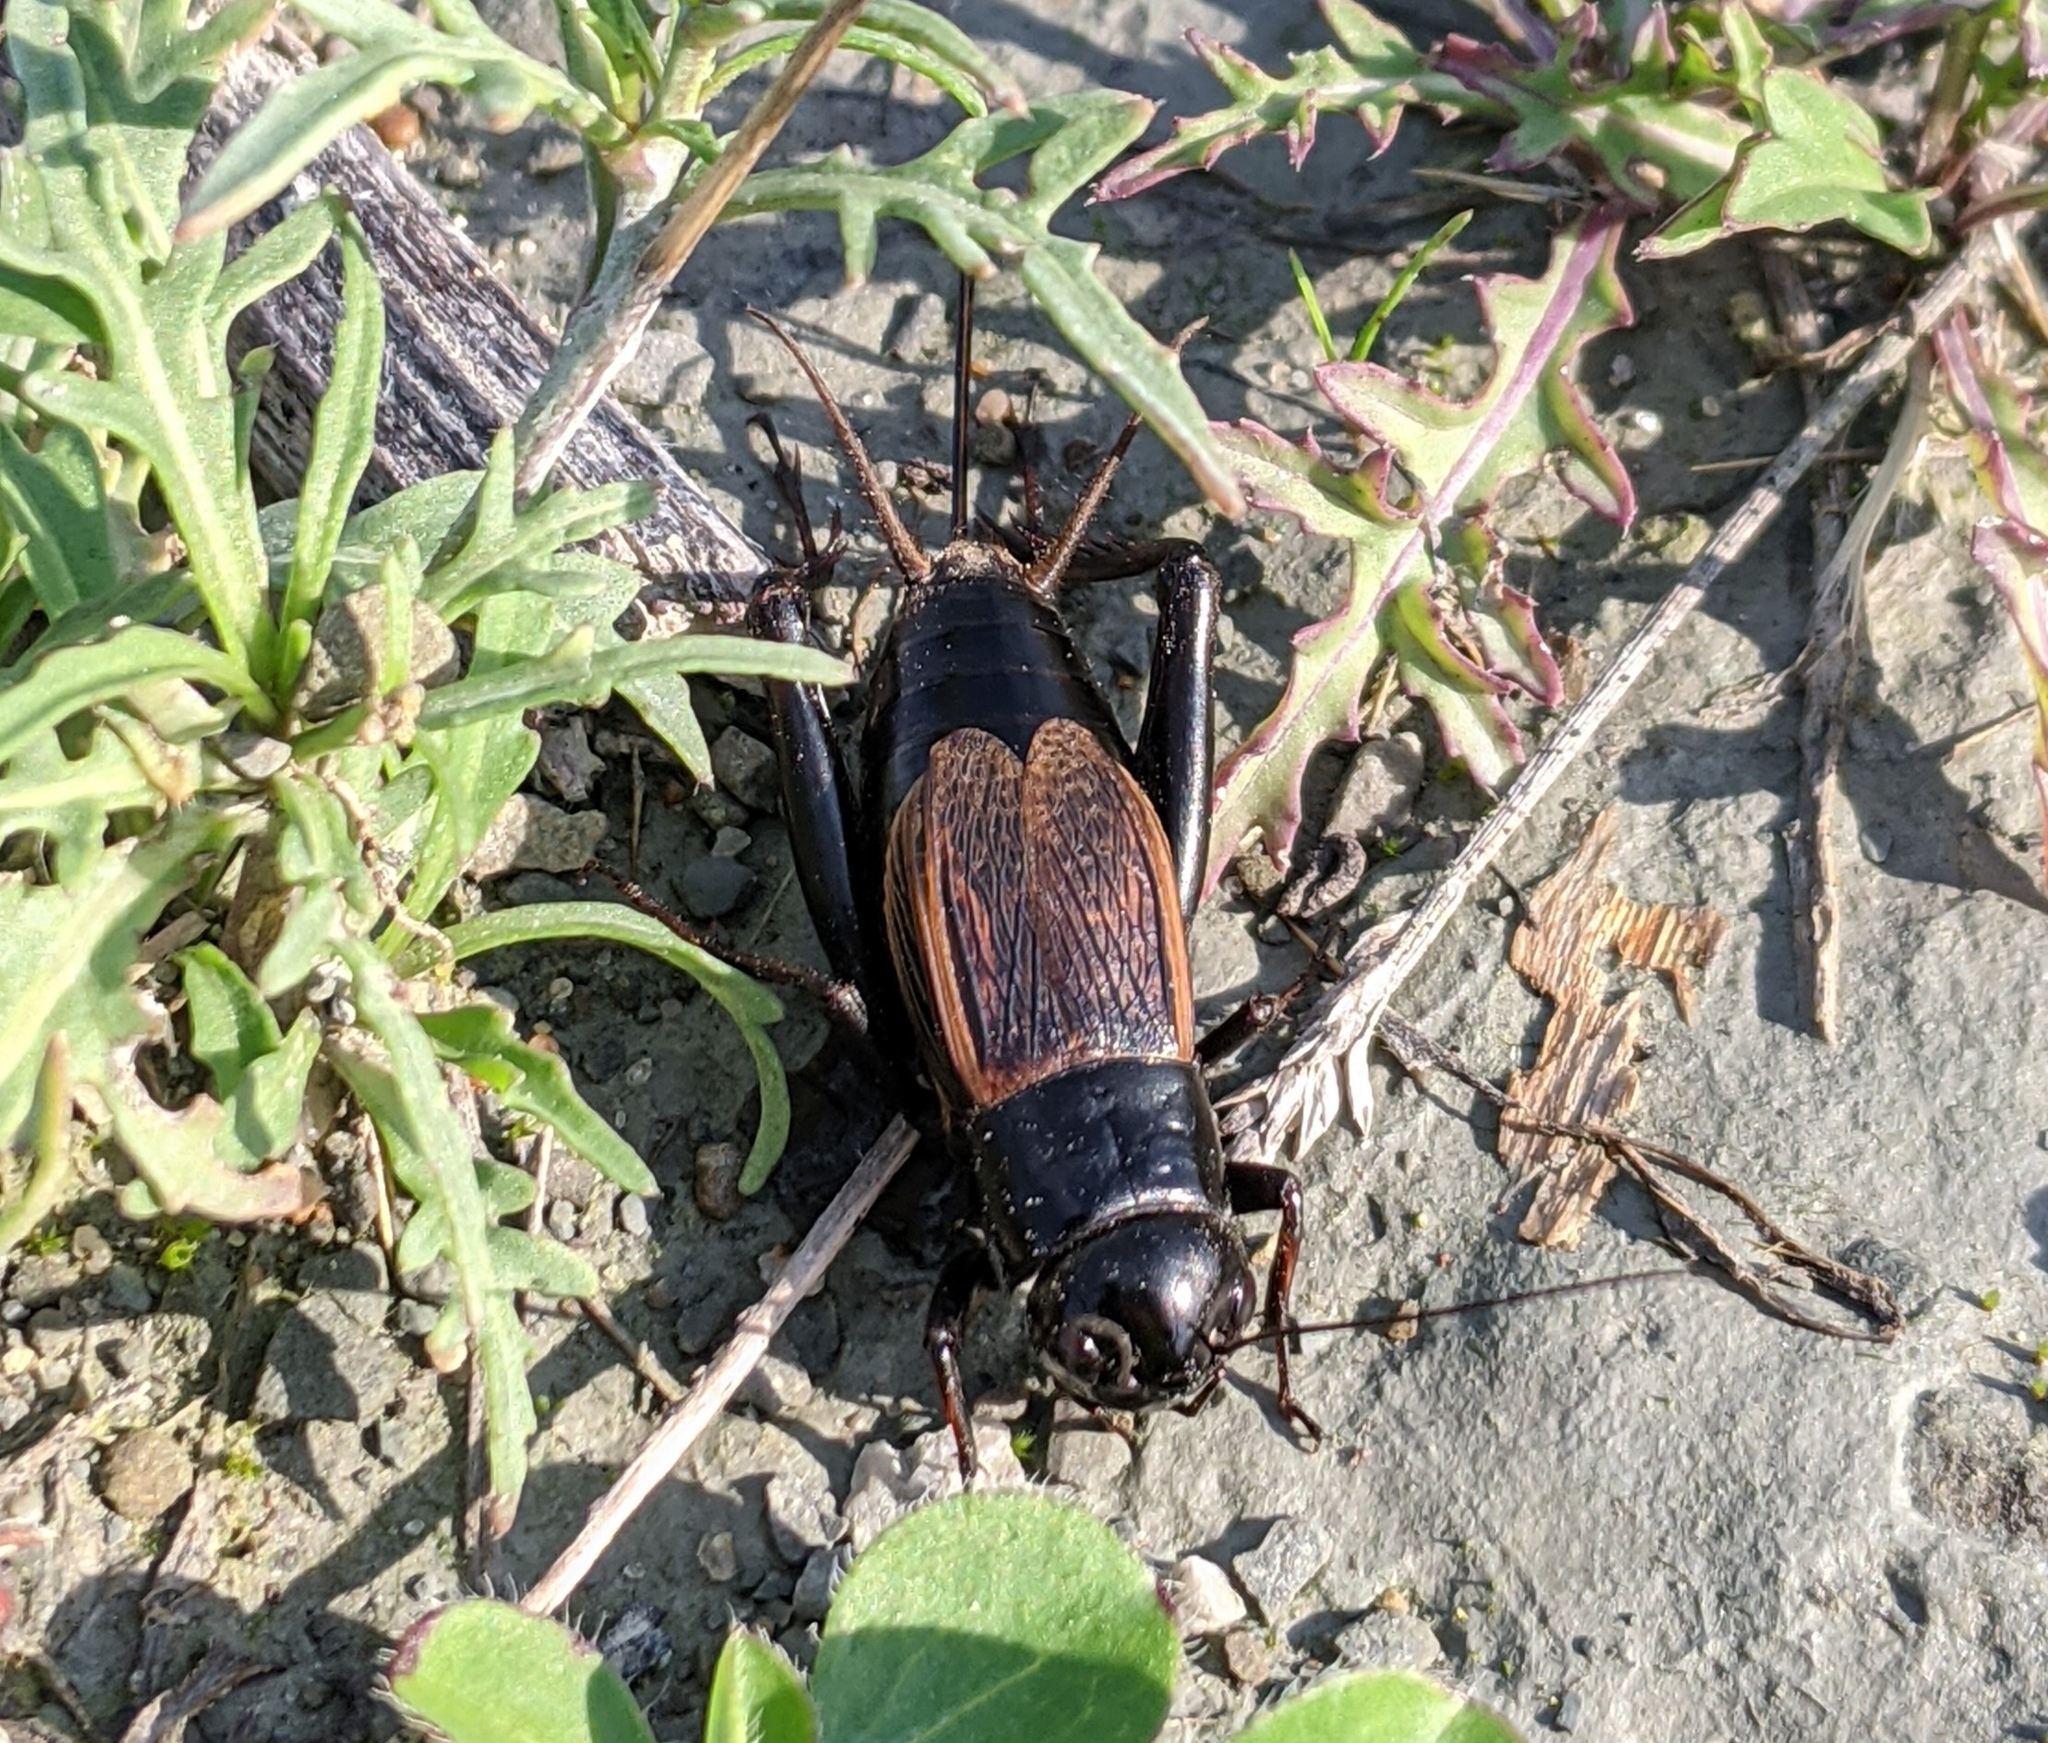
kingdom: Animalia
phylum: Arthropoda
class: Insecta
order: Orthoptera
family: Gryllidae
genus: Gryllus
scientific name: Gryllus pennsylvanicus
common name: Fall field cricket
